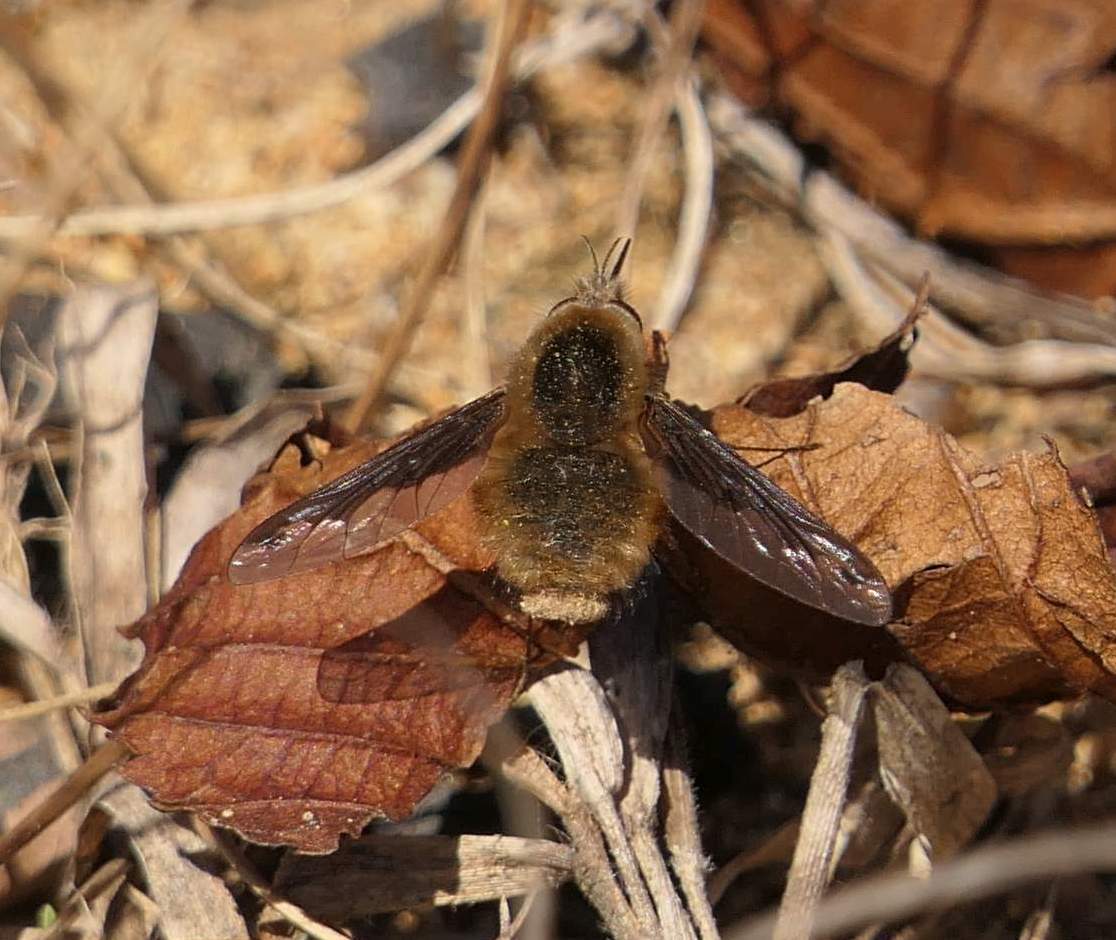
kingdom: Animalia
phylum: Arthropoda
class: Insecta
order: Diptera
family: Bombyliidae
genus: Bombylius
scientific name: Bombylius major
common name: Bee fly
